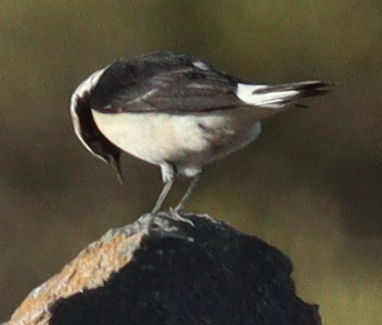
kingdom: Animalia
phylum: Chordata
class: Aves
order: Passeriformes
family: Muscicapidae
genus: Oenanthe
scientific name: Oenanthe lugentoides
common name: Arabian wheatear
